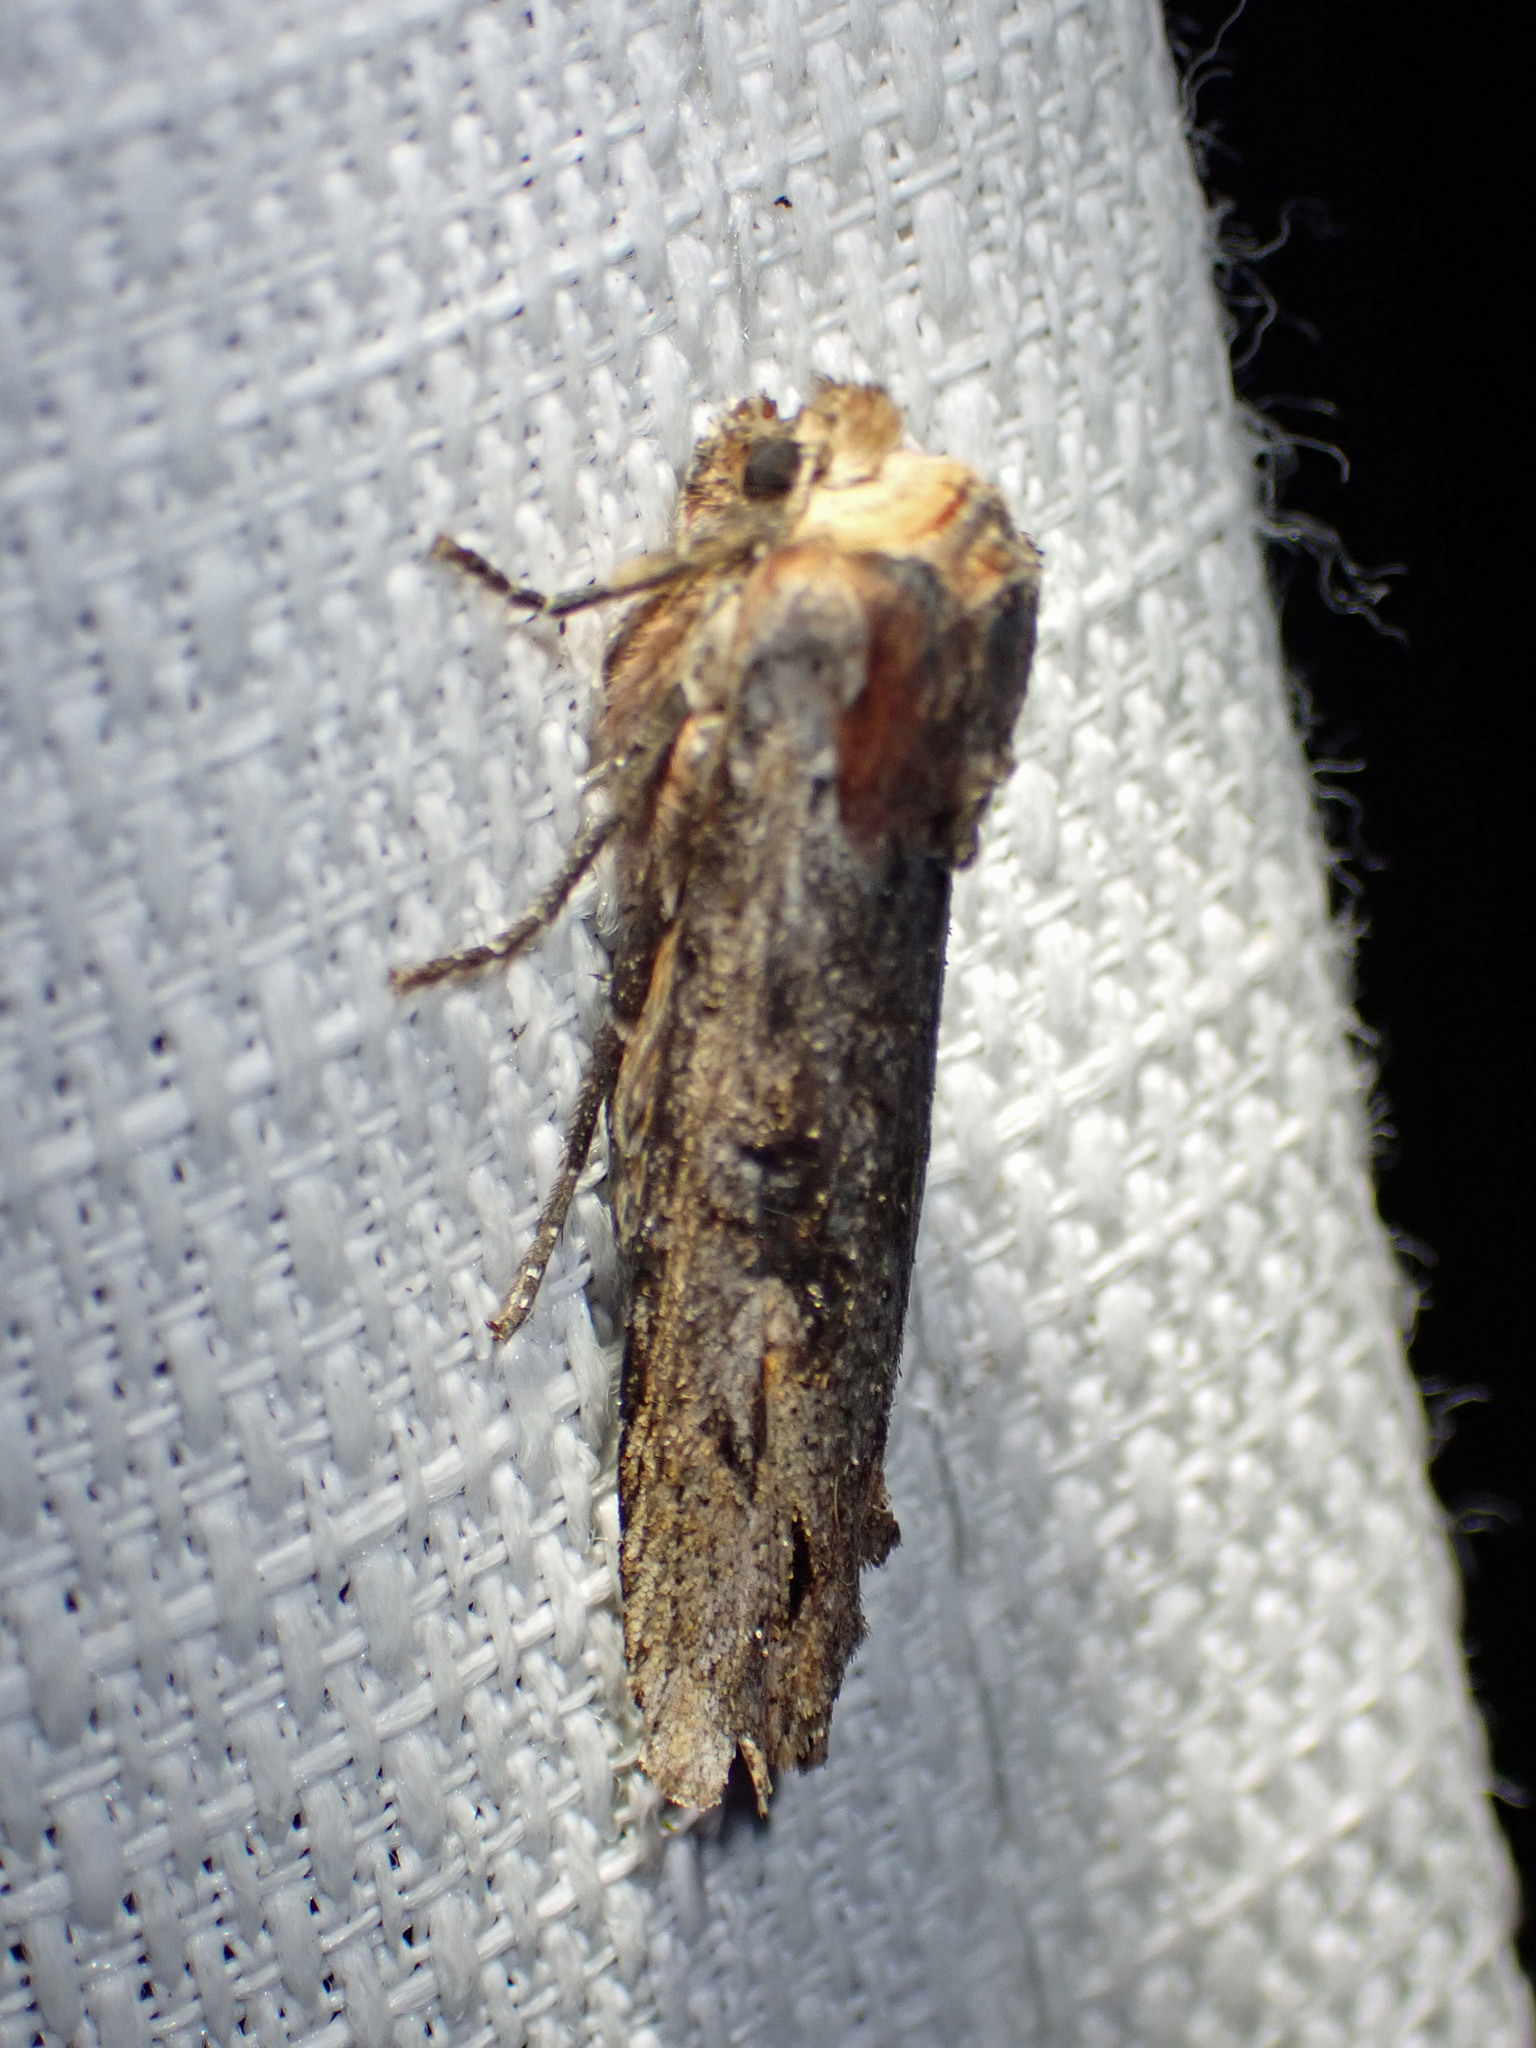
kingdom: Animalia
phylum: Arthropoda
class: Insecta
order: Lepidoptera
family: Noctuidae
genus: Xylena
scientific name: Xylena thoracica
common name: Acadian swordgrass moth
